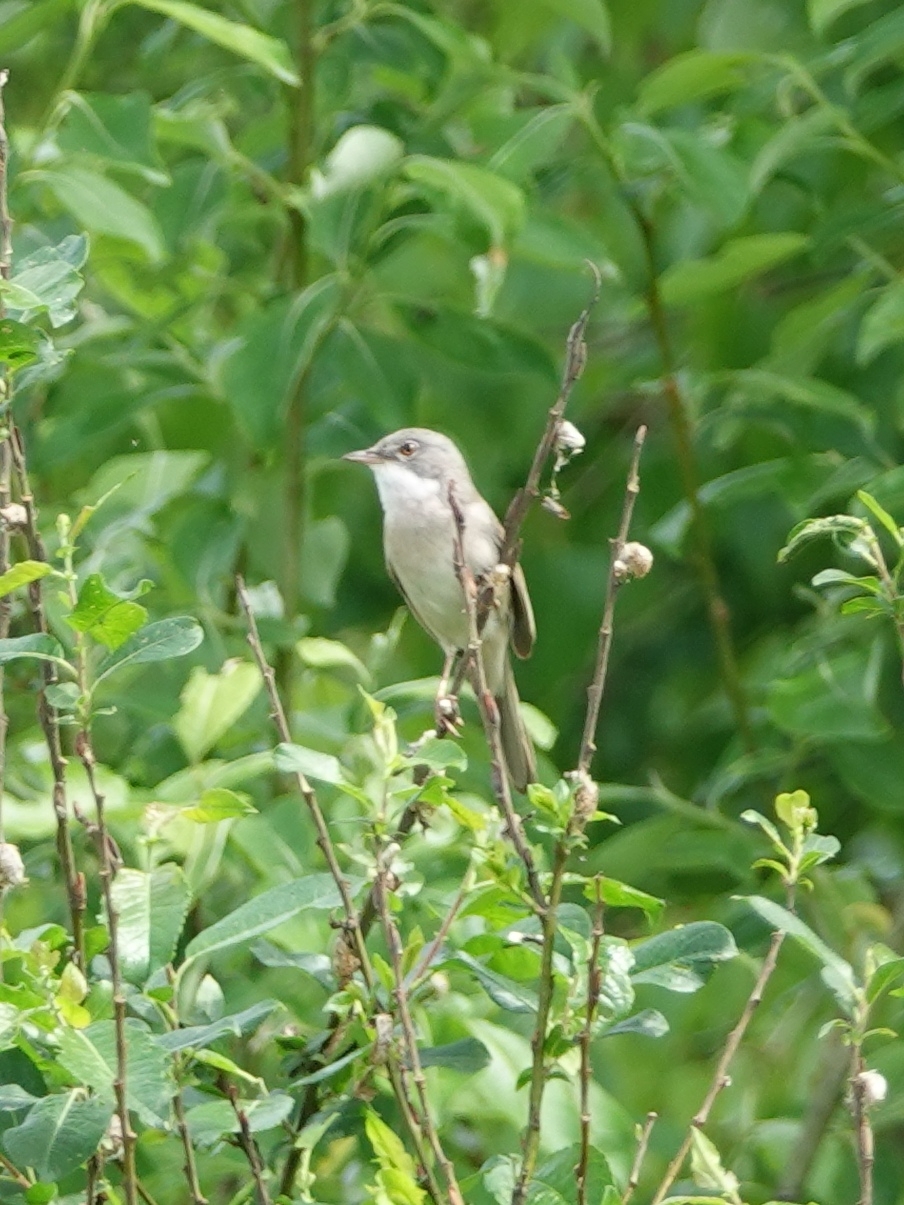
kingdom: Animalia
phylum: Chordata
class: Aves
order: Passeriformes
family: Sylviidae
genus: Sylvia
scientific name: Sylvia communis
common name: Common whitethroat
